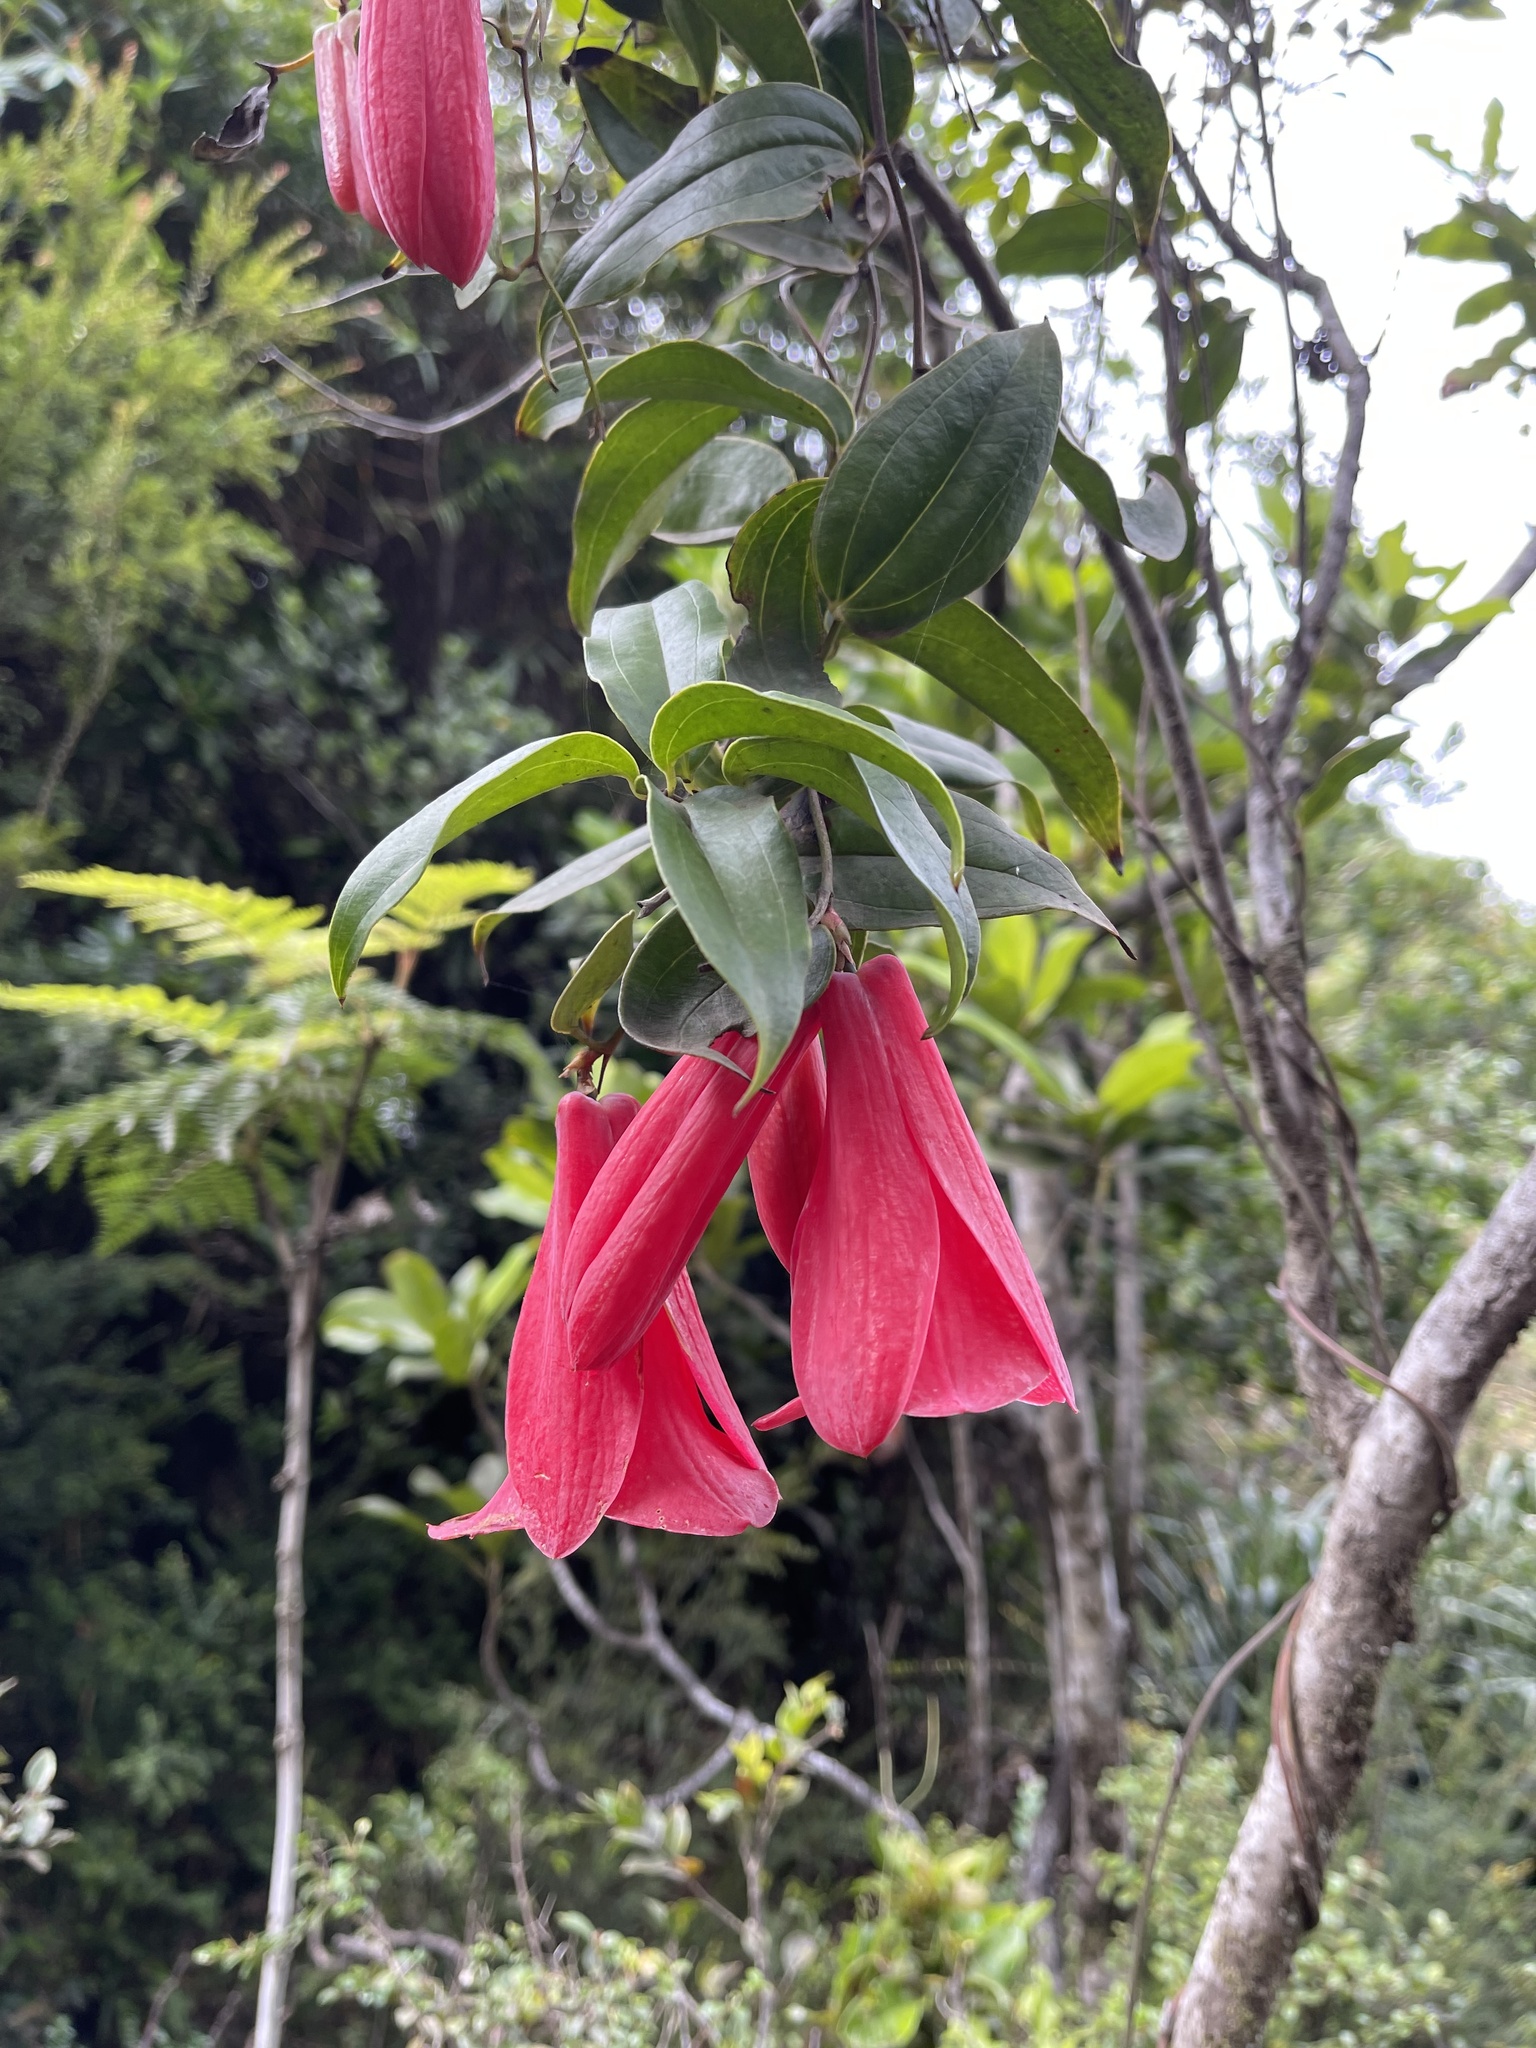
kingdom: Plantae
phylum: Tracheophyta
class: Liliopsida
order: Liliales
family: Philesiaceae
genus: Lapageria
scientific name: Lapageria rosea
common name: Chilean-bellflower
